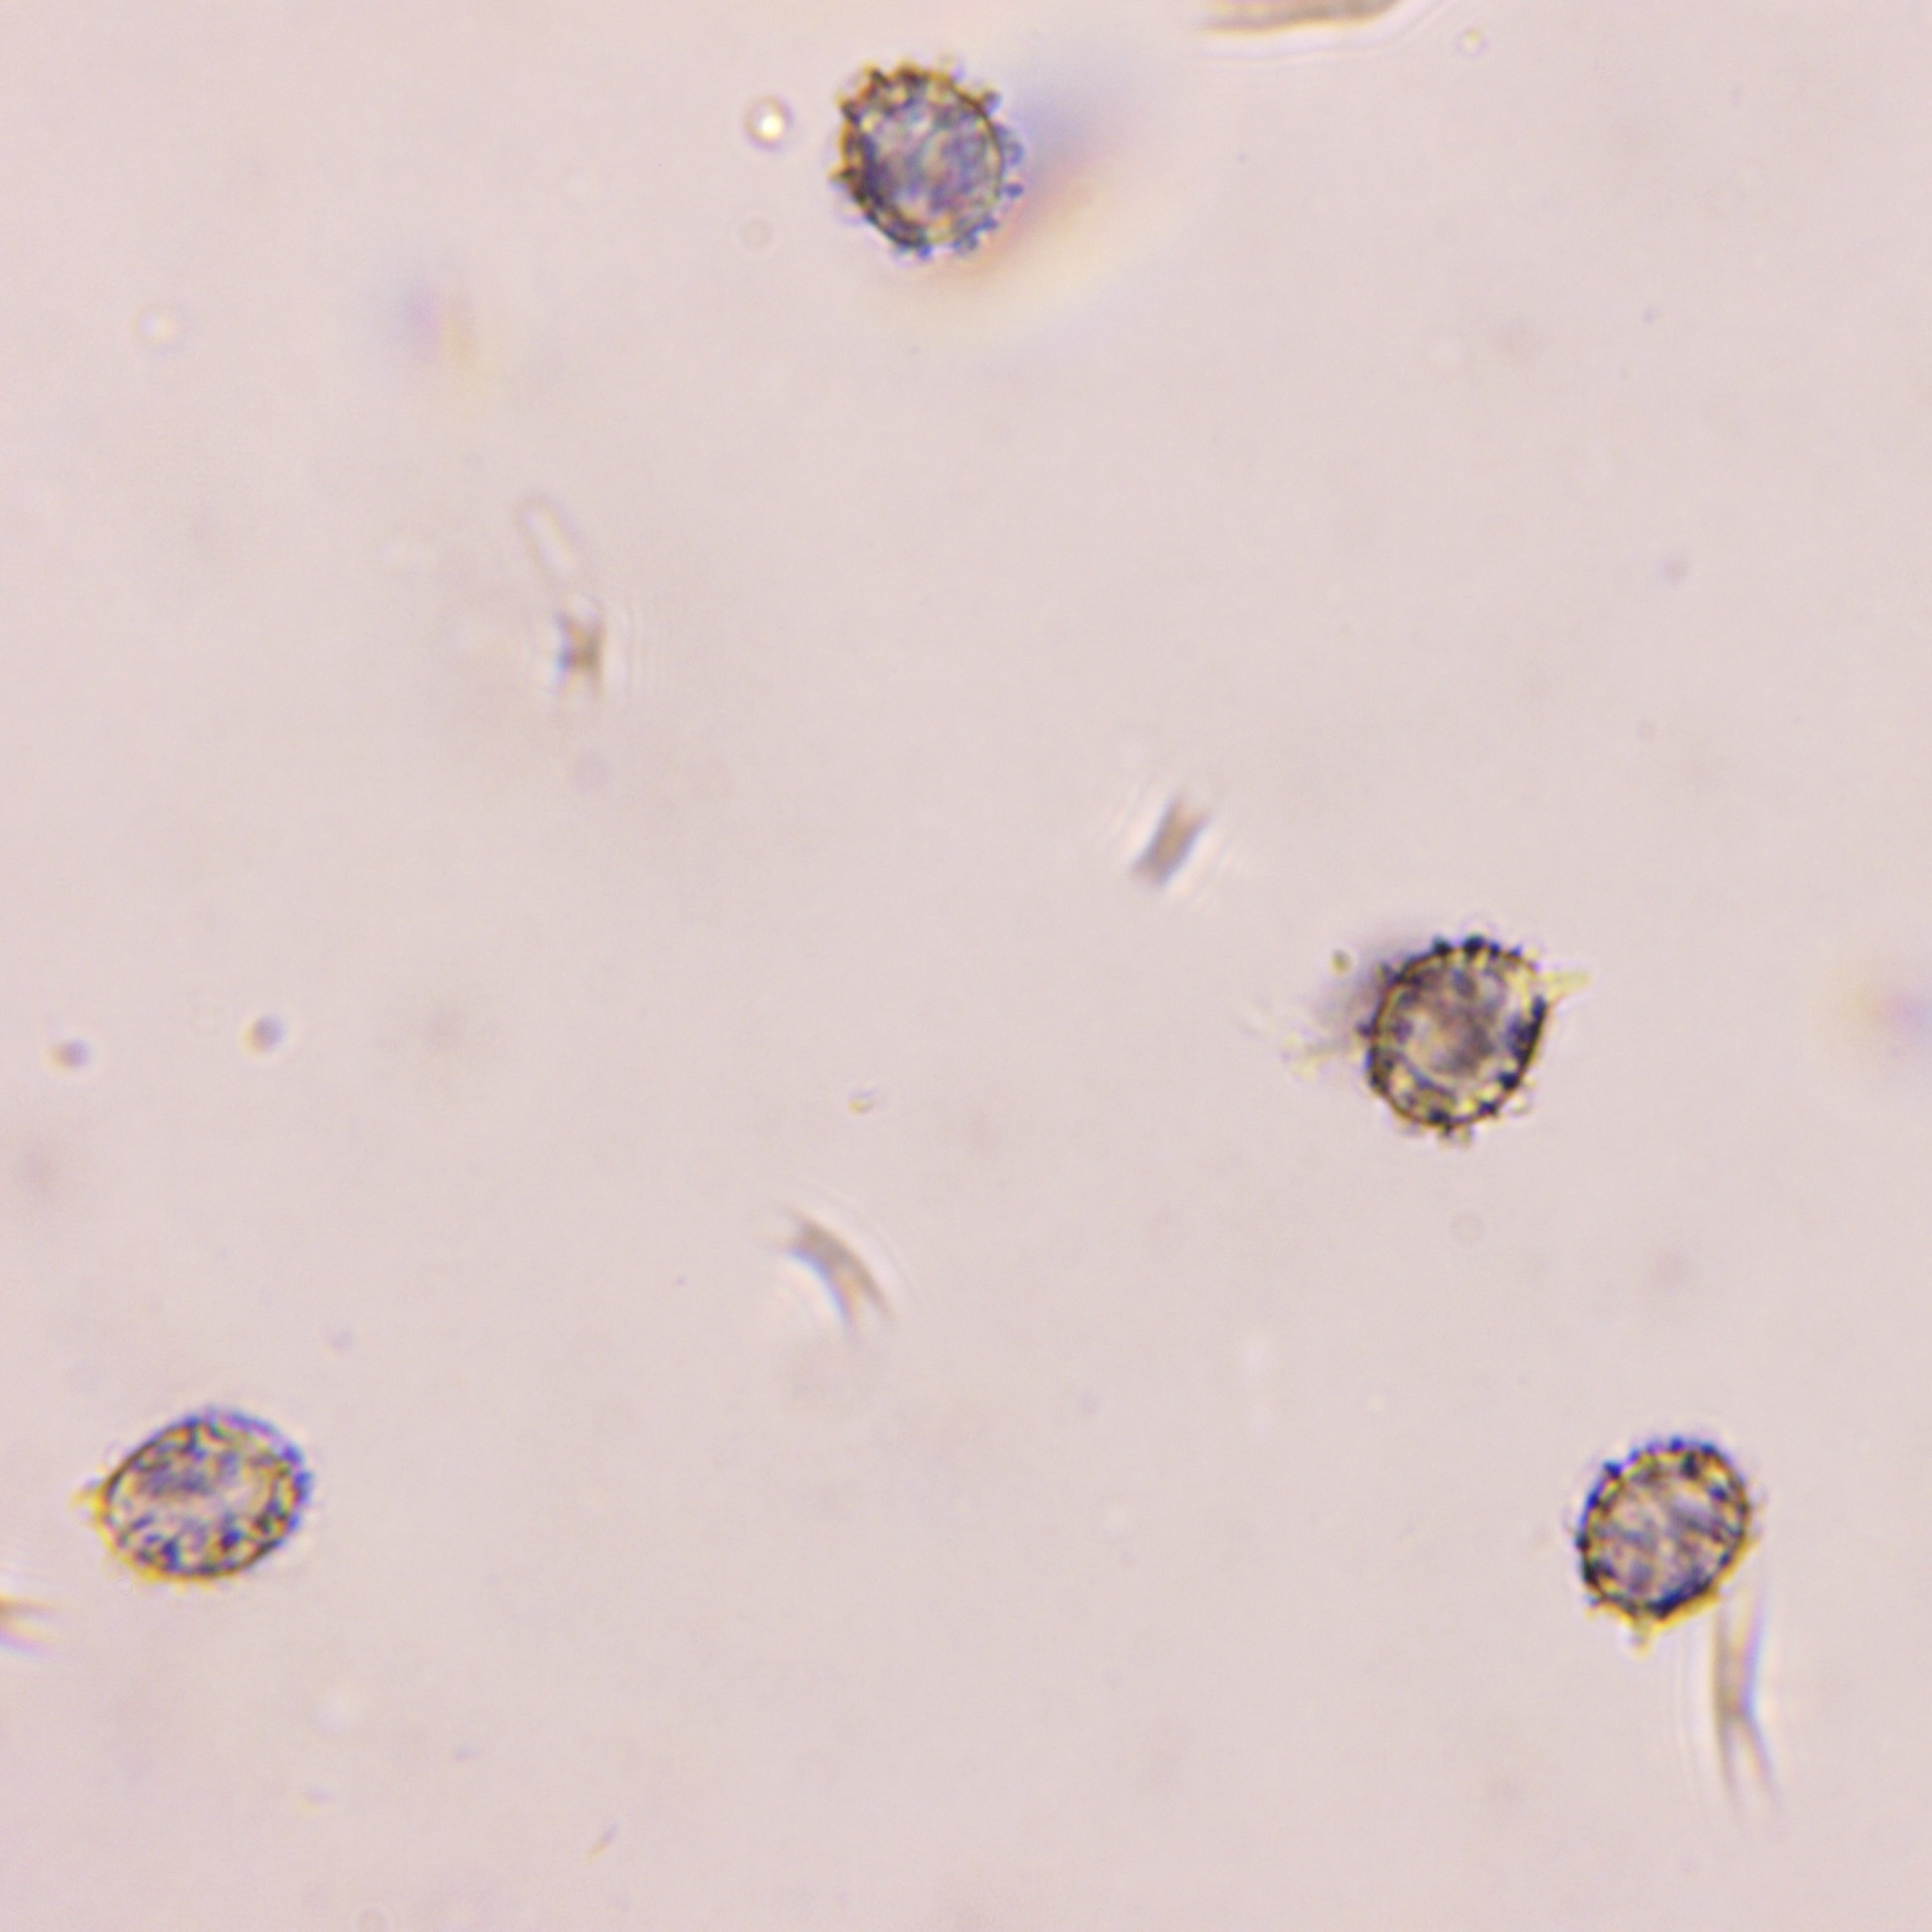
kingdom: Fungi
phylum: Basidiomycota
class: Agaricomycetes
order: Russulales
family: Russulaceae
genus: Russula
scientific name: Russula xantho
